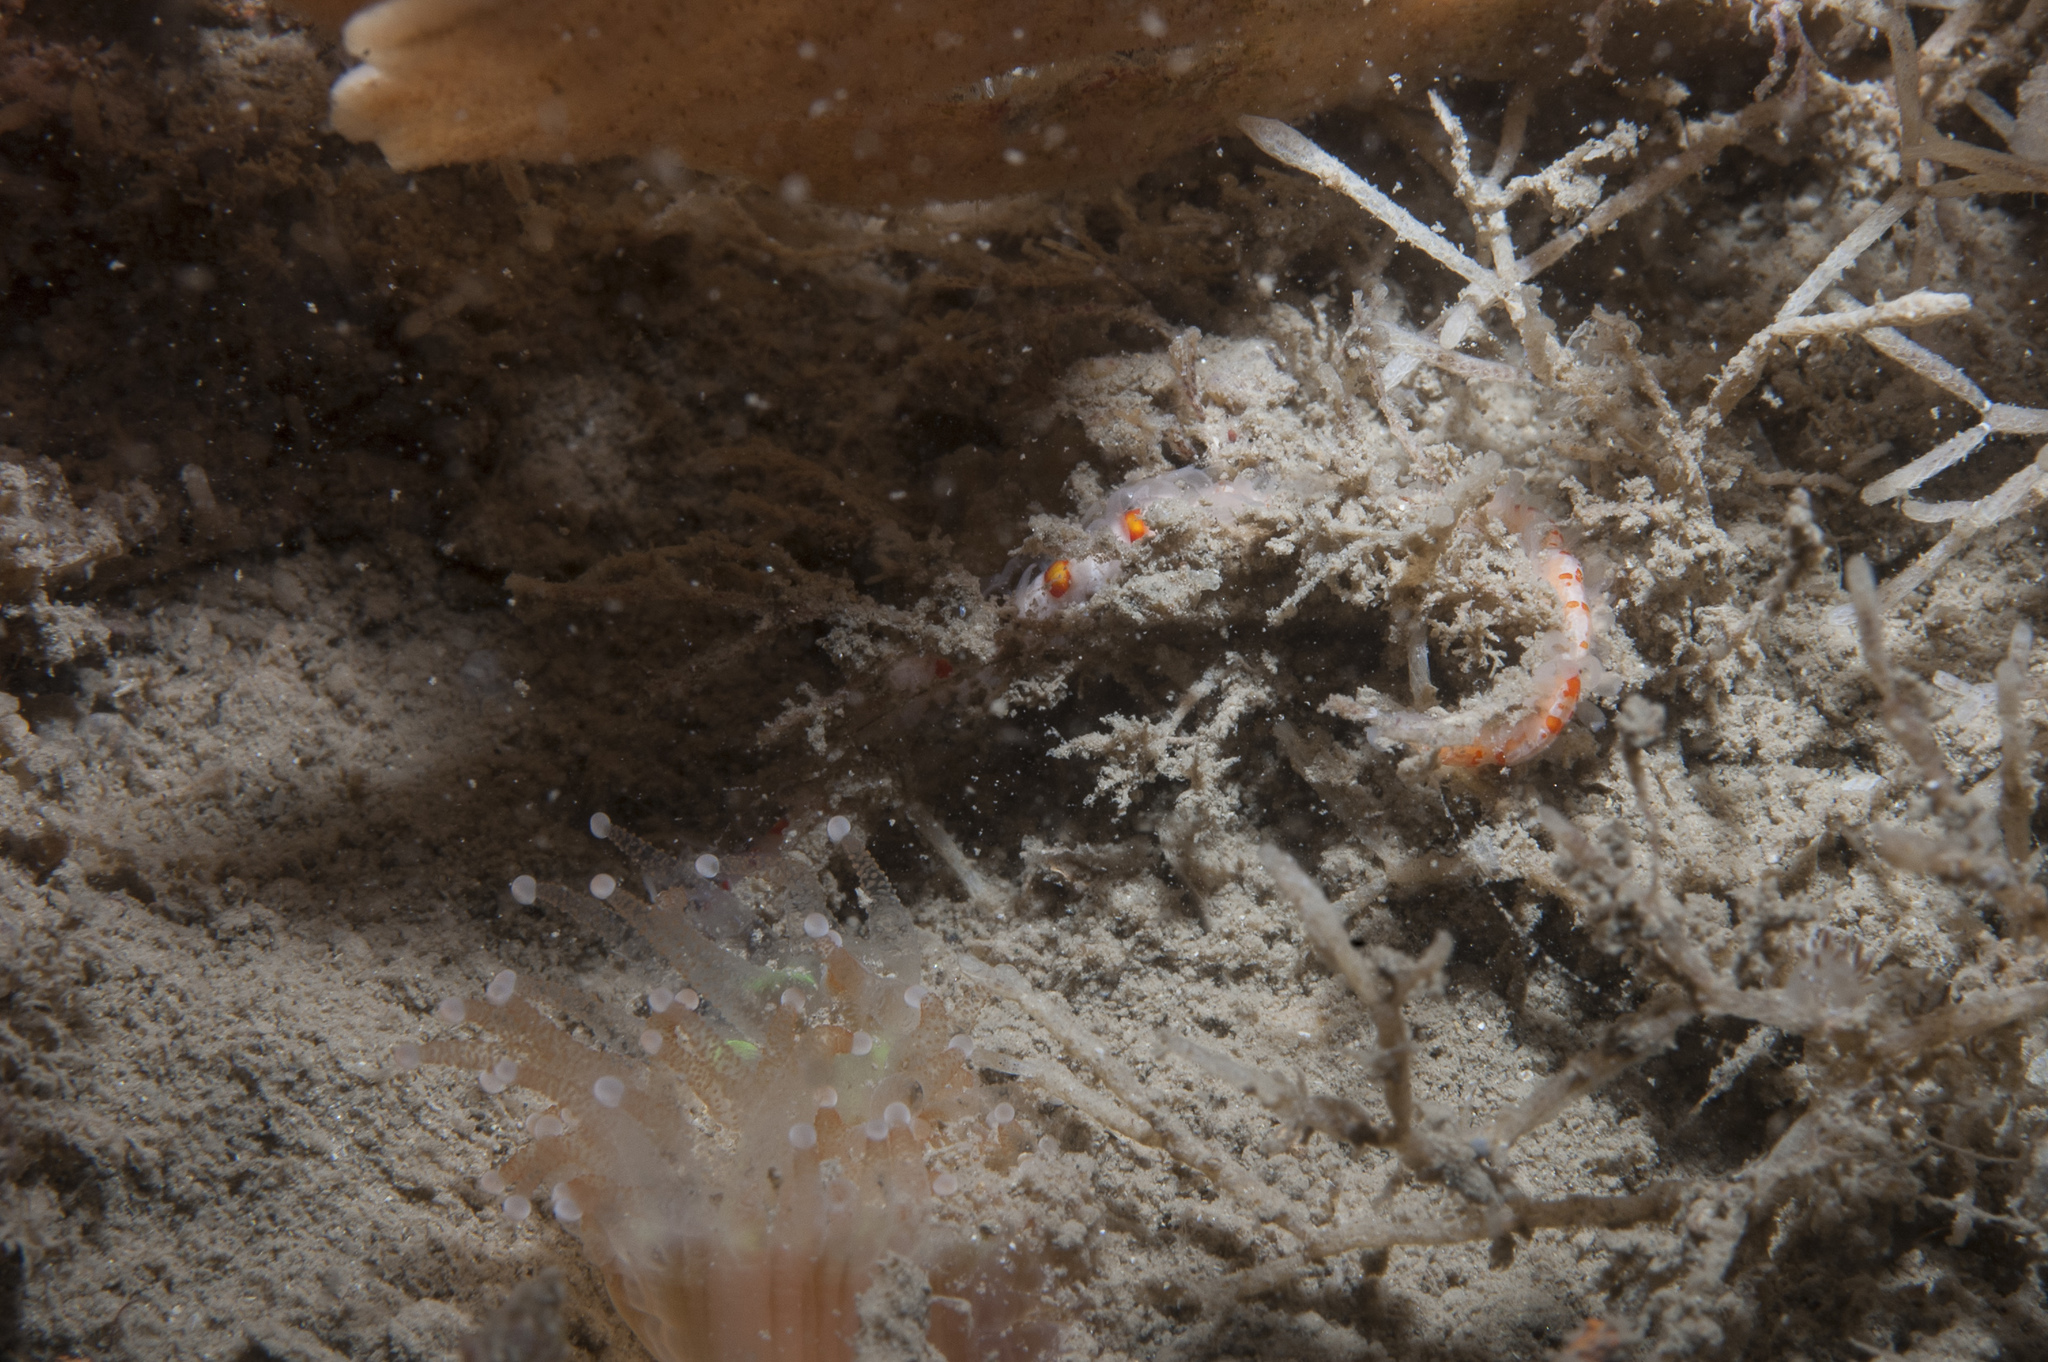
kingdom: Animalia
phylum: Annelida
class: Polychaeta
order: Phyllodocida
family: Syllidae
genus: Myrianida
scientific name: Myrianida pinnigera
